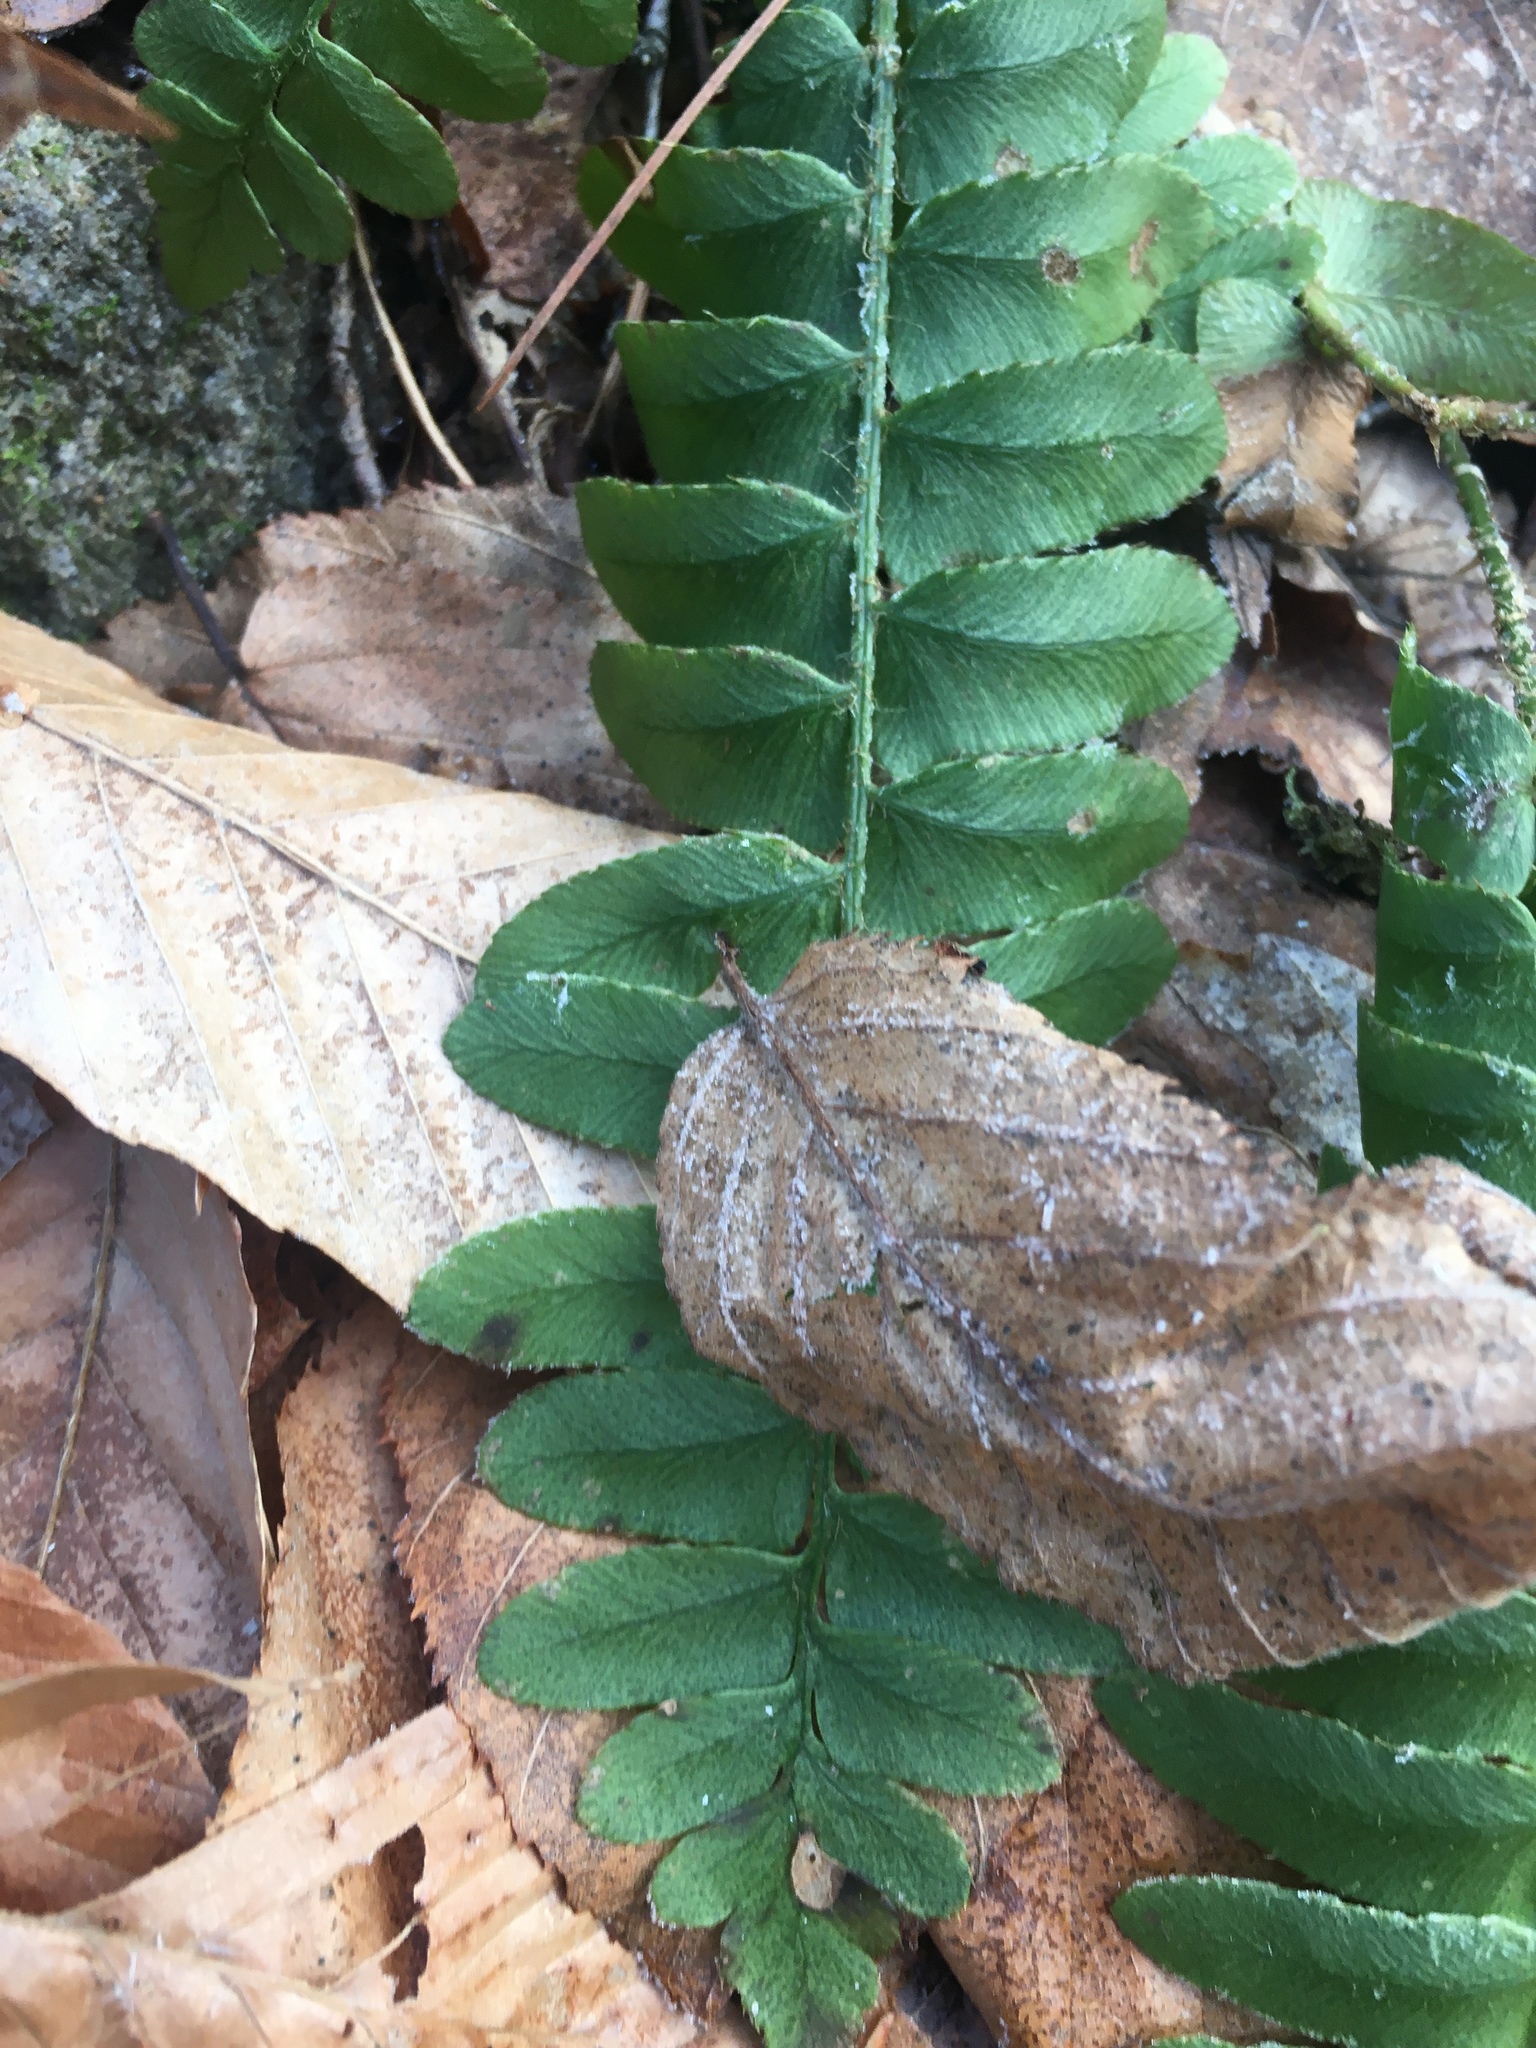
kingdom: Plantae
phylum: Tracheophyta
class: Polypodiopsida
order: Polypodiales
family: Dryopteridaceae
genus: Polystichum
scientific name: Polystichum acrostichoides
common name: Christmas fern
